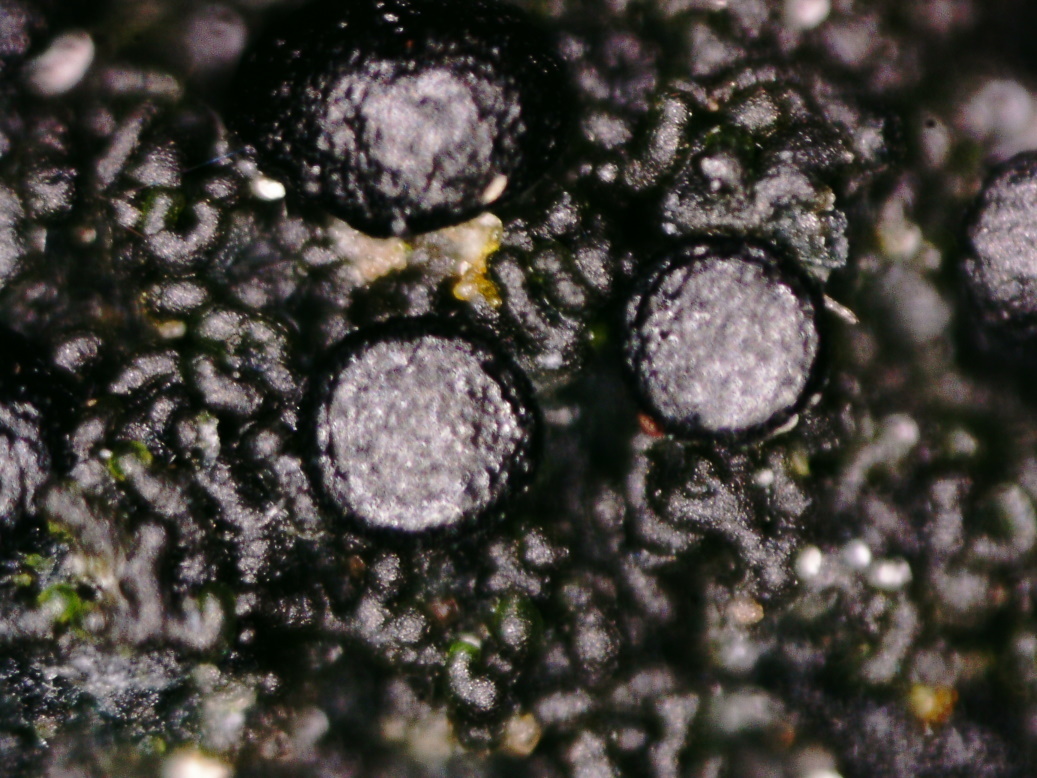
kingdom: Fungi
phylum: Ascomycota
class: Lecanoromycetes
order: Peltigerales
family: Placynthiaceae
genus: Placynthium
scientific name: Placynthium nigrum
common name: Blackthread lichen
